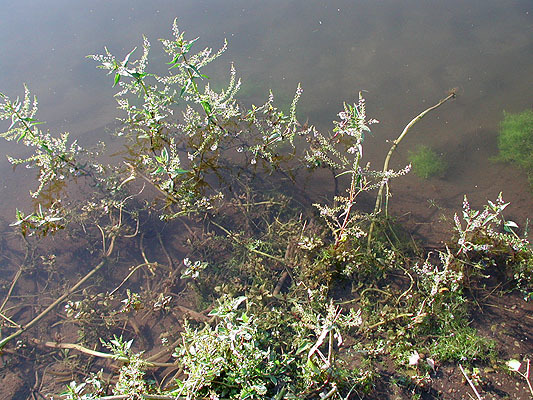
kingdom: Plantae
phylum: Tracheophyta
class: Magnoliopsida
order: Lamiales
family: Plantaginaceae
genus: Veronica
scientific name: Veronica anagallis-aquatica
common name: Water speedwell
